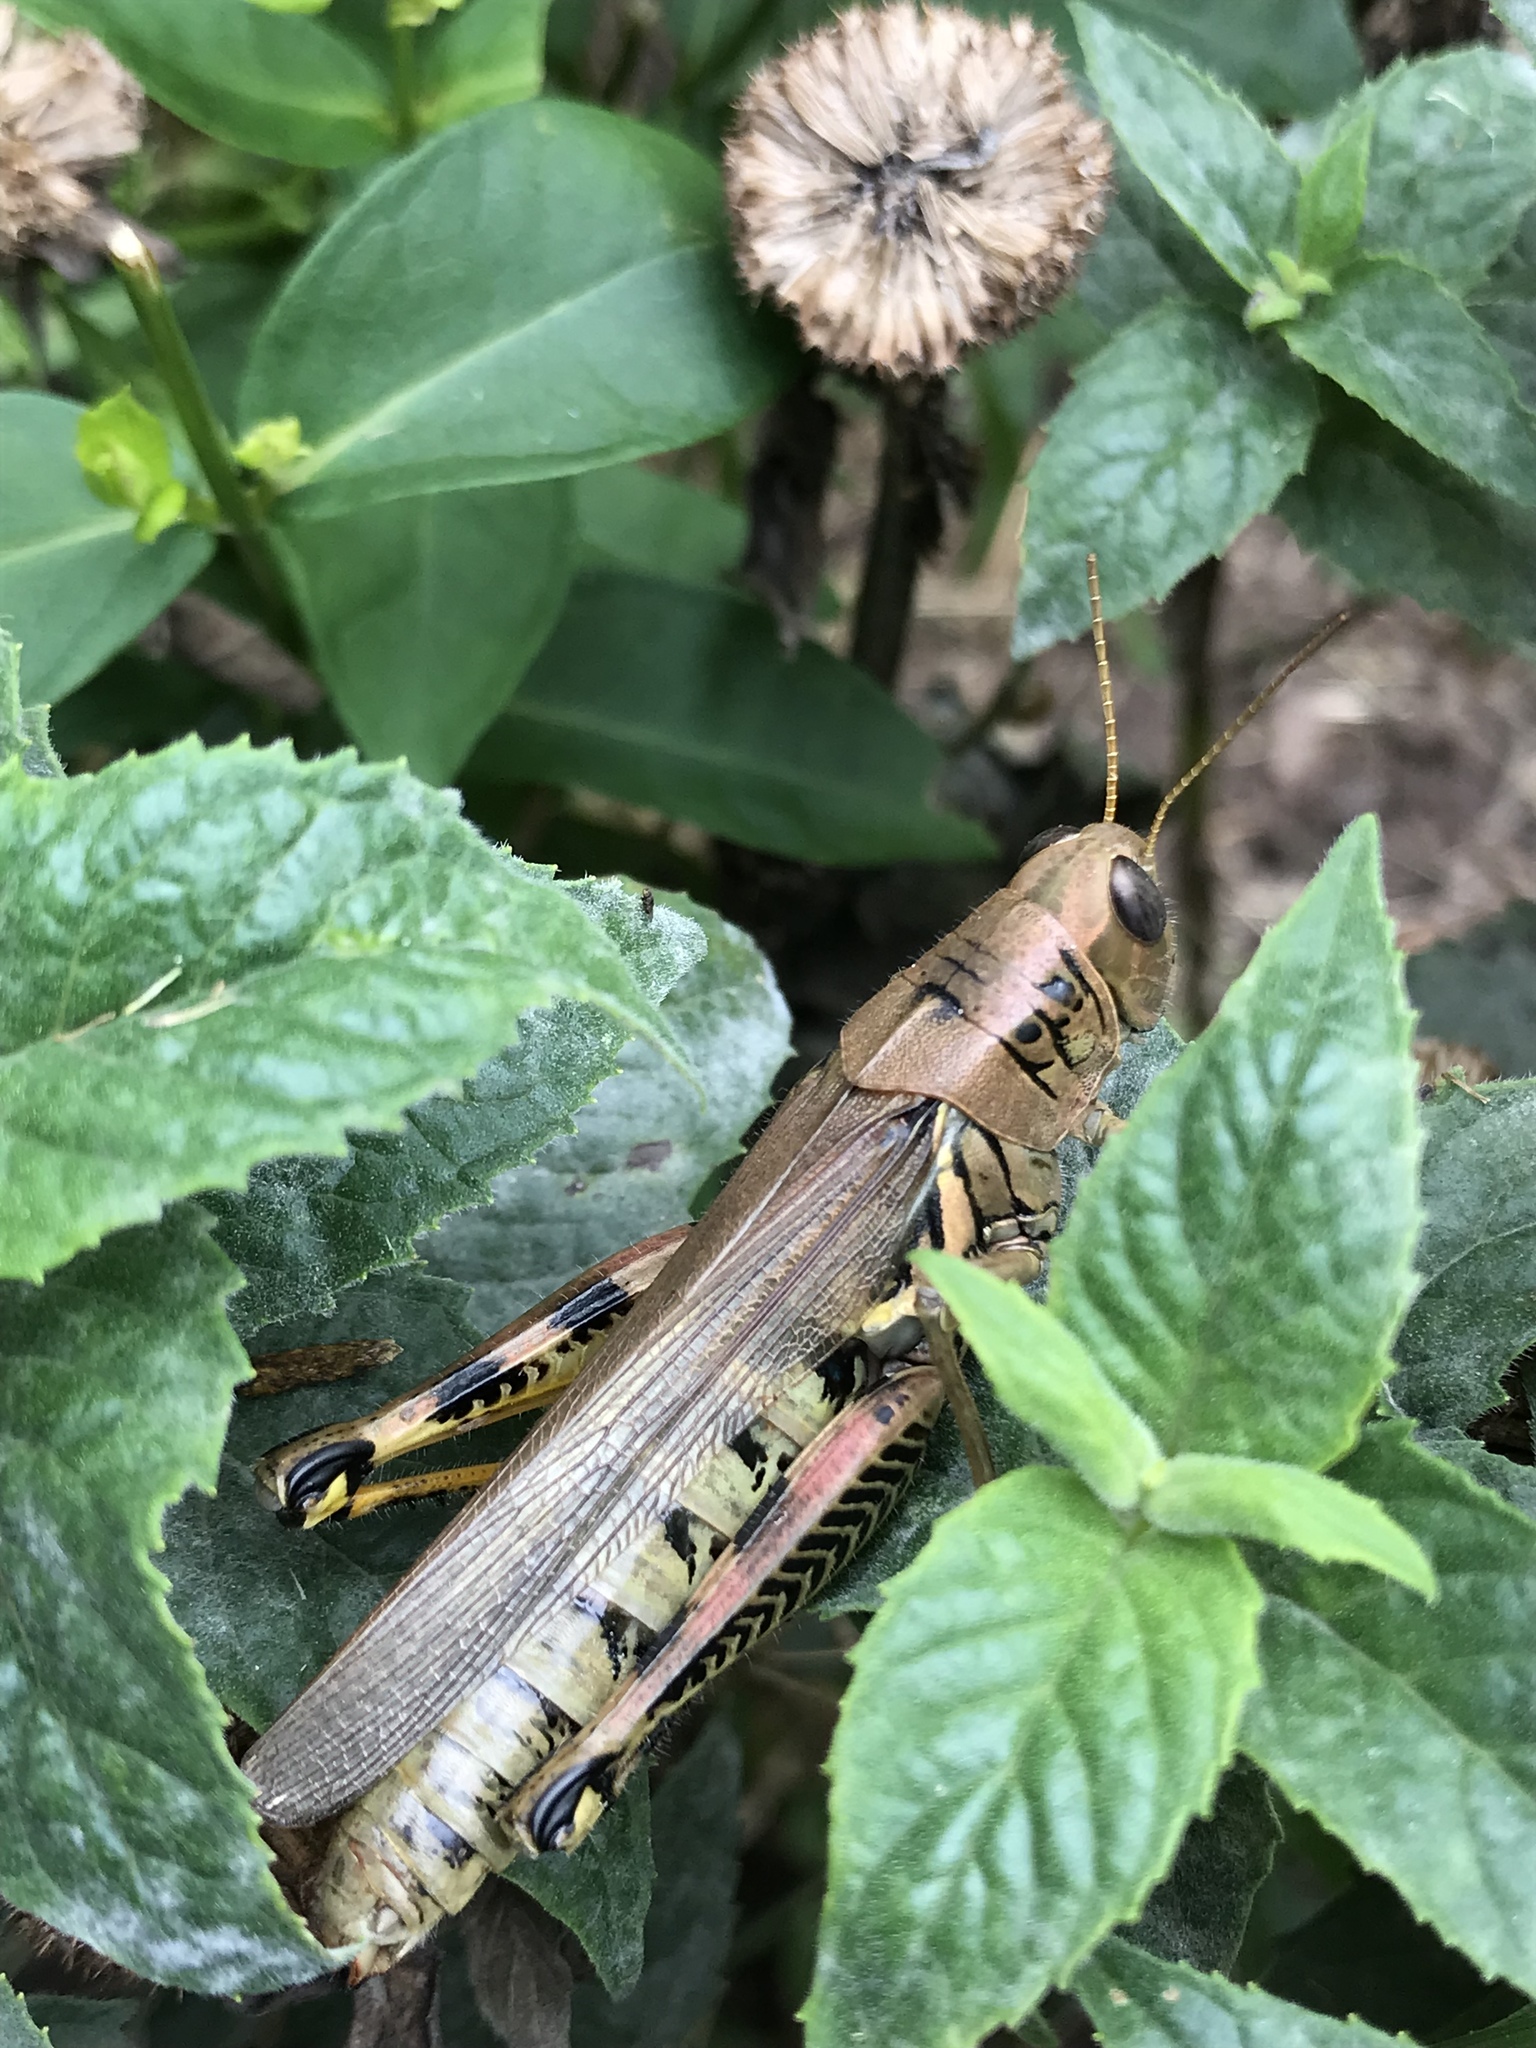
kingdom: Animalia
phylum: Arthropoda
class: Insecta
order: Orthoptera
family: Acrididae
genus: Melanoplus
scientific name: Melanoplus differentialis
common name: Differential grasshopper
